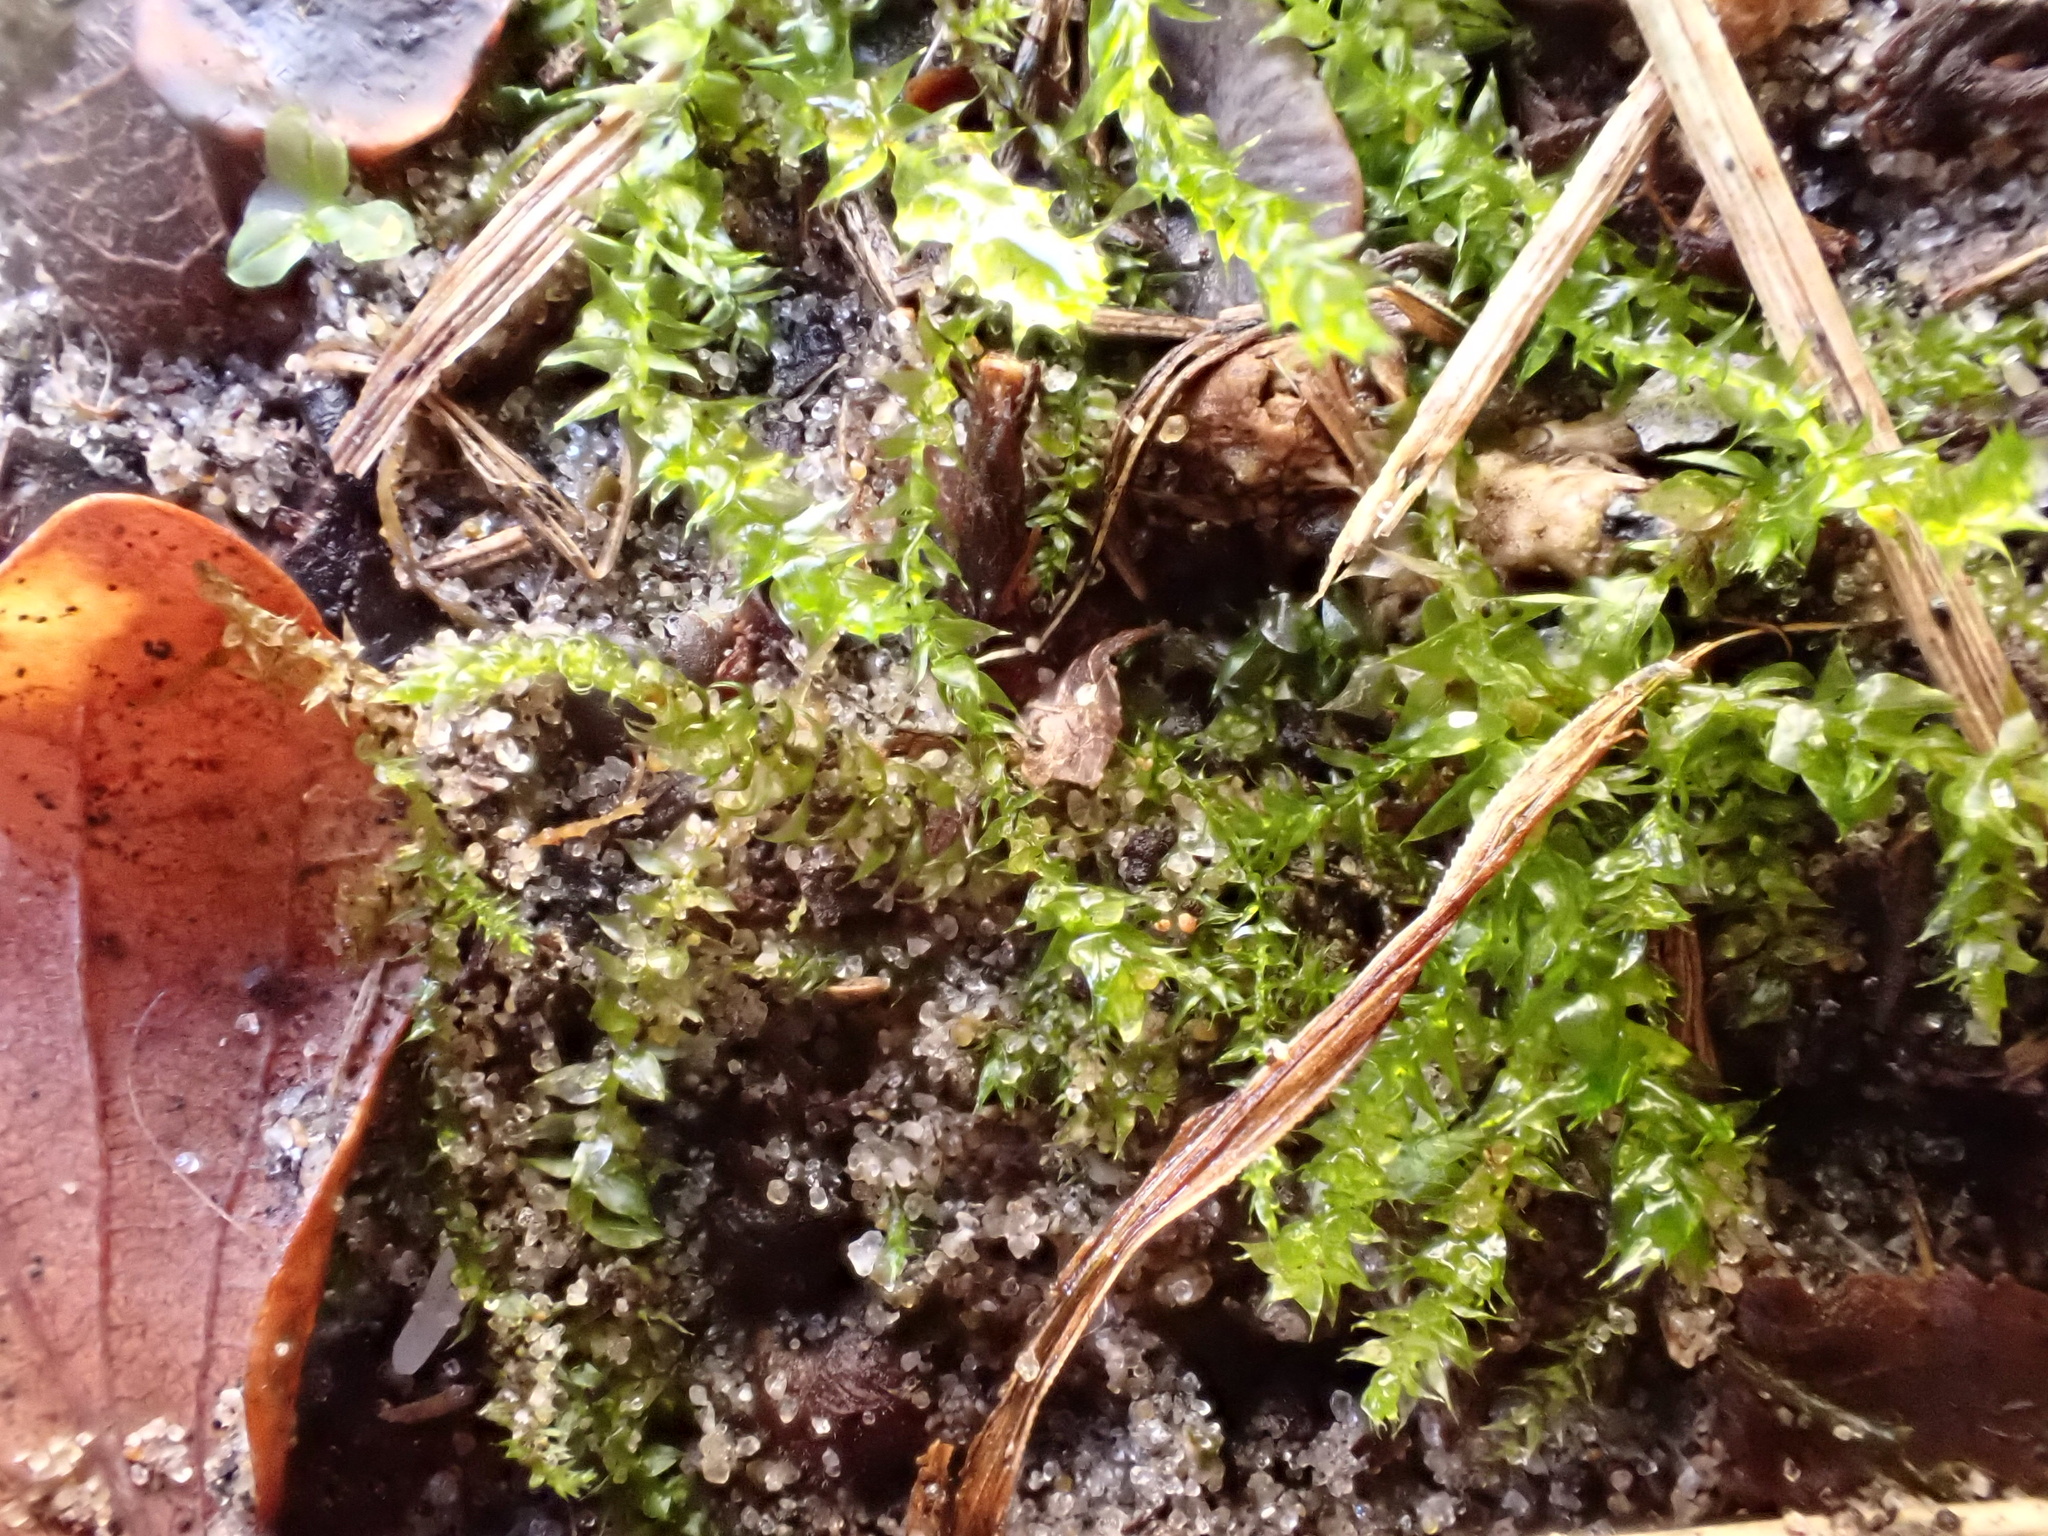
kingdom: Plantae
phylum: Bryophyta
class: Bryopsida
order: Hypnales
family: Brachytheciaceae
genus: Rhynchostegium
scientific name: Rhynchostegium megapolitanum
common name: Megapolitan feather-moss
